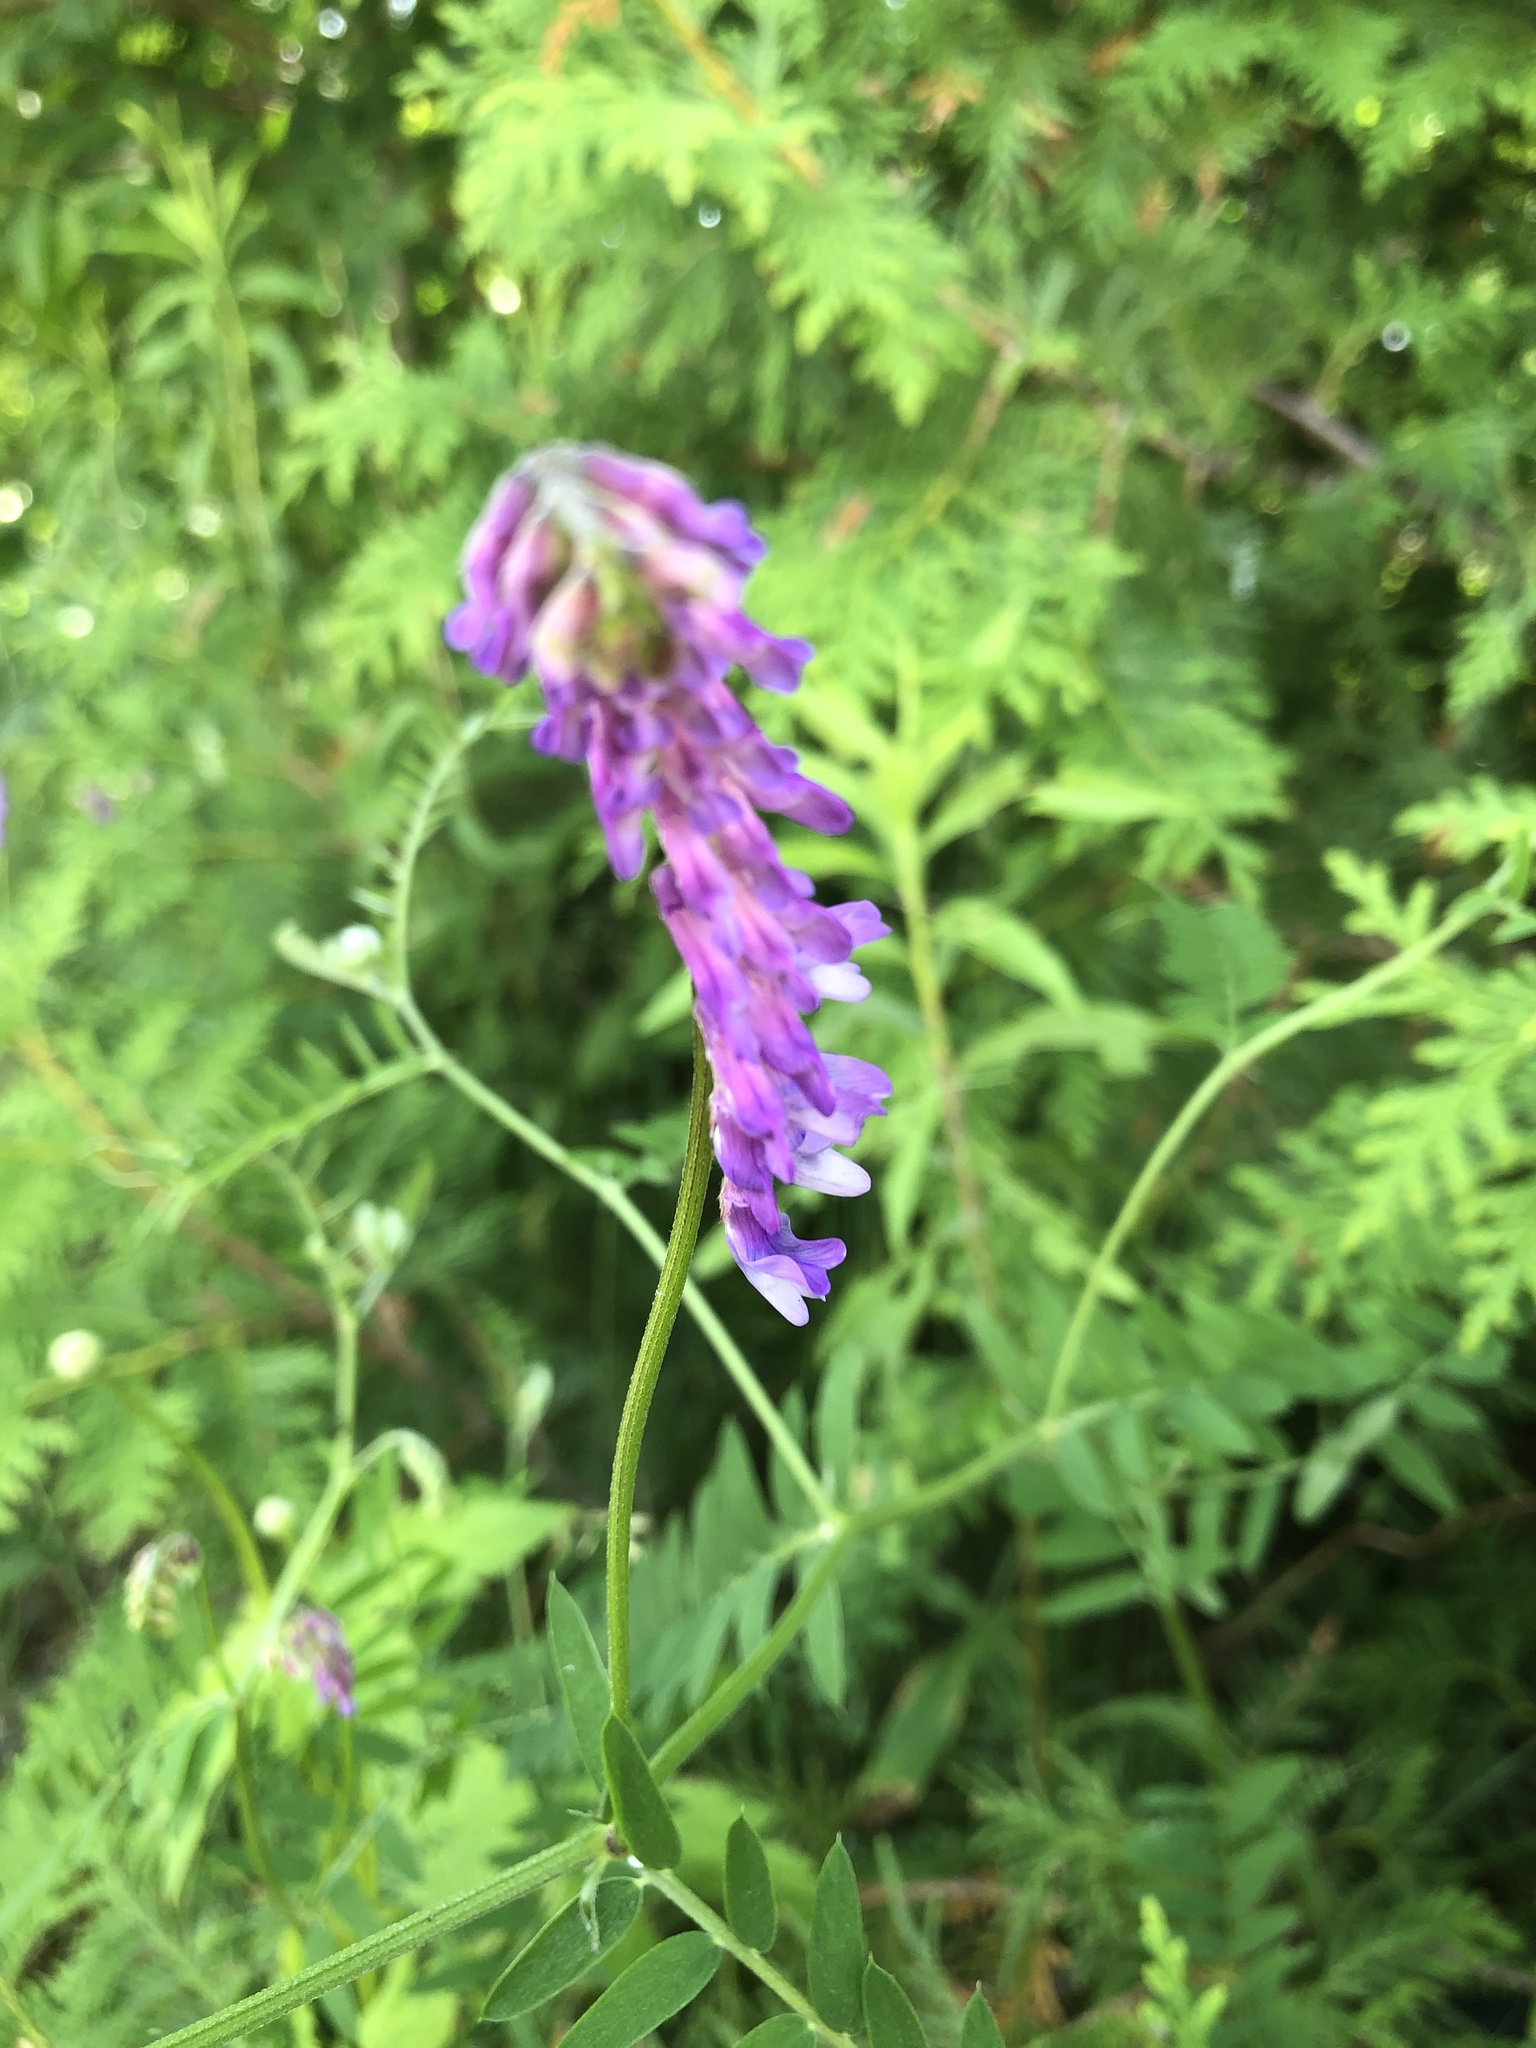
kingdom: Plantae
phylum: Tracheophyta
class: Magnoliopsida
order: Fabales
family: Fabaceae
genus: Vicia
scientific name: Vicia cracca
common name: Bird vetch
